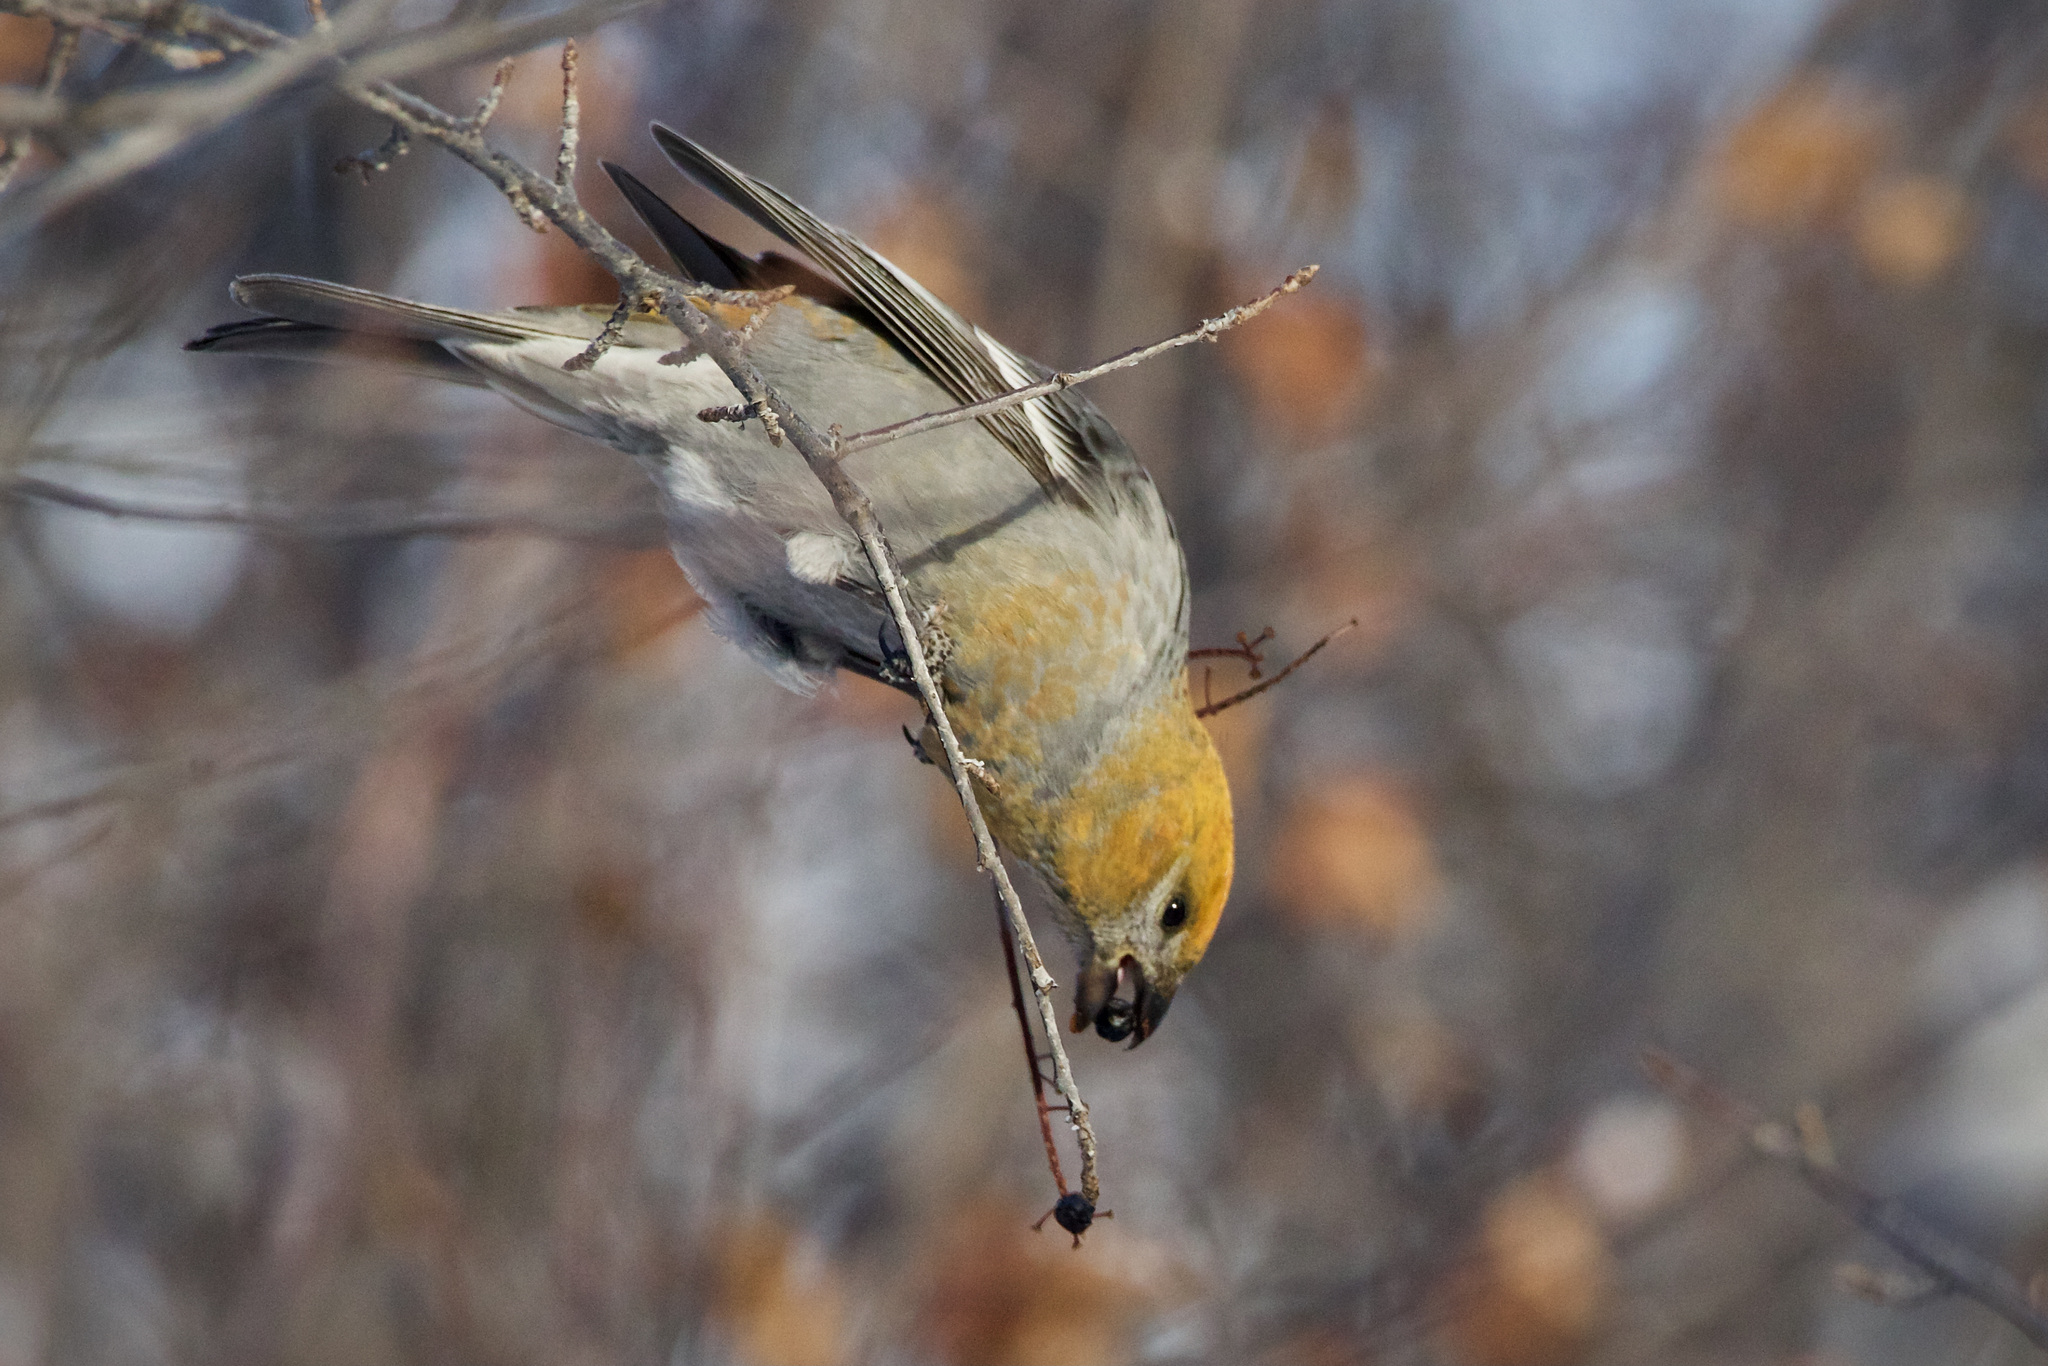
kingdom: Animalia
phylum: Chordata
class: Aves
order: Passeriformes
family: Fringillidae
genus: Pinicola
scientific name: Pinicola enucleator
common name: Pine grosbeak
